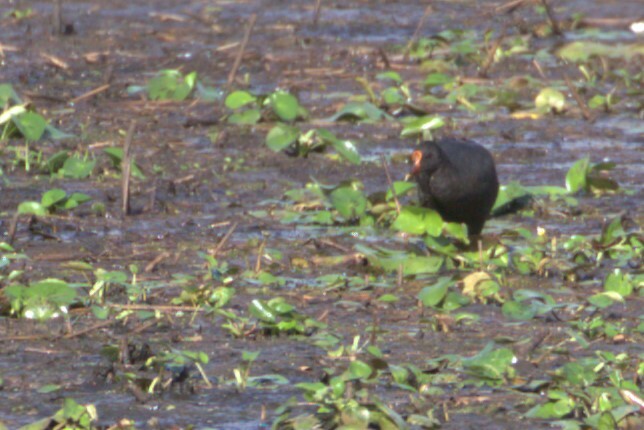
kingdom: Animalia
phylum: Chordata
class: Aves
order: Gruiformes
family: Rallidae
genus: Gallinula
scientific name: Gallinula tenebrosa
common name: Dusky moorhen
